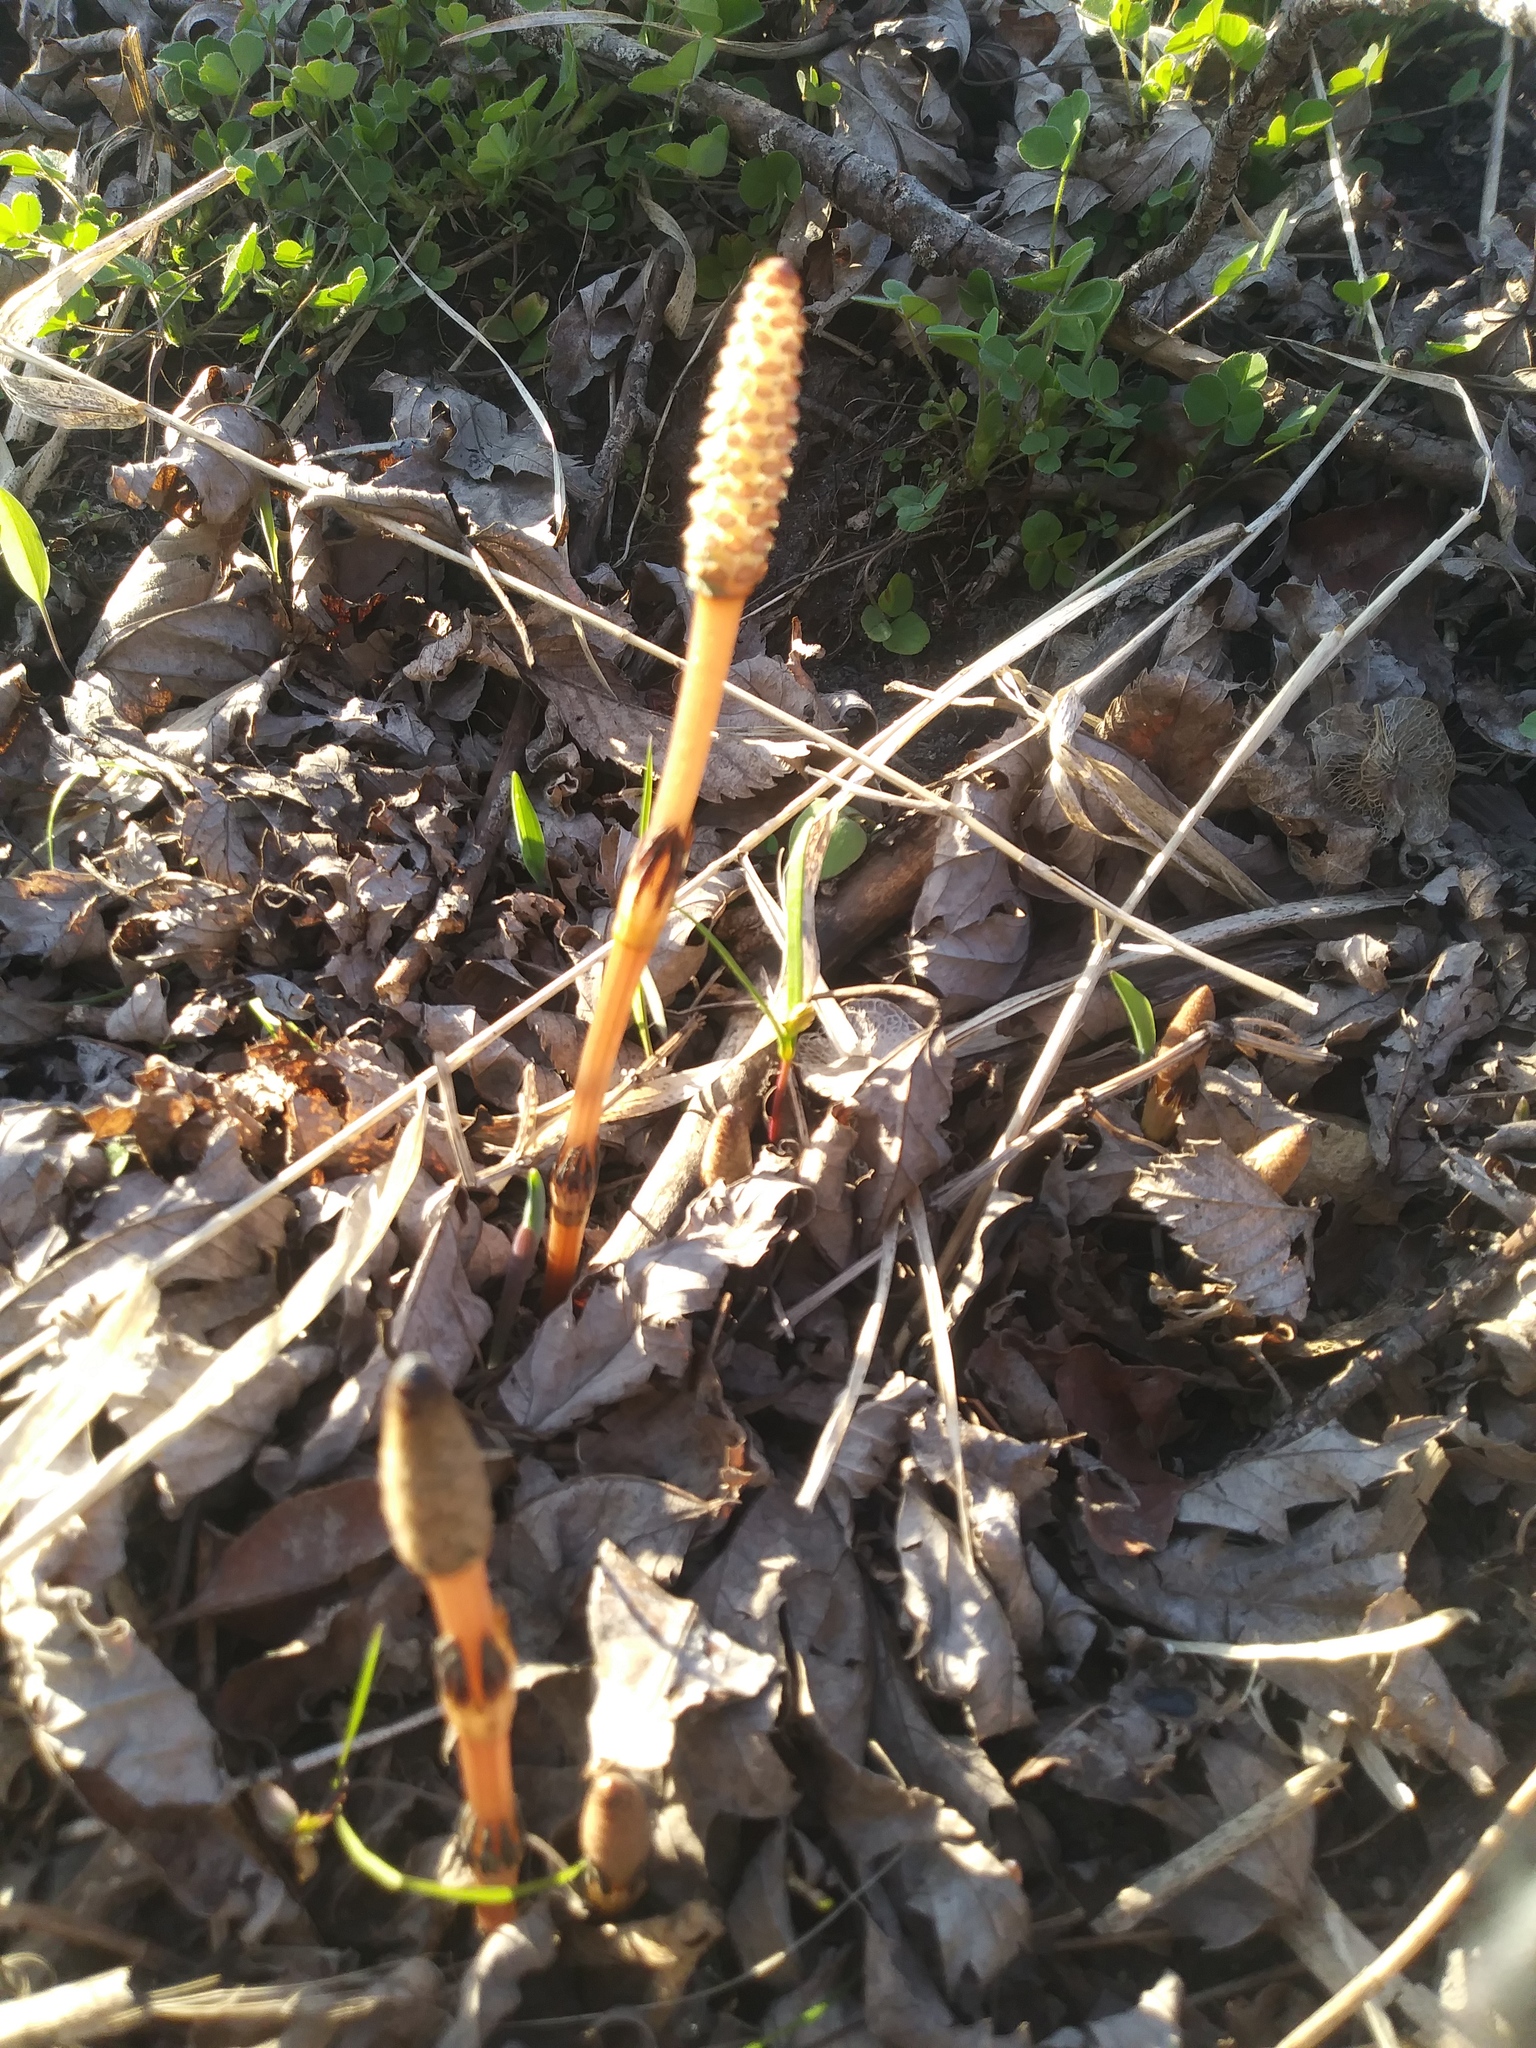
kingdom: Plantae
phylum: Tracheophyta
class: Polypodiopsida
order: Equisetales
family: Equisetaceae
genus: Equisetum
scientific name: Equisetum arvense
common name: Field horsetail
